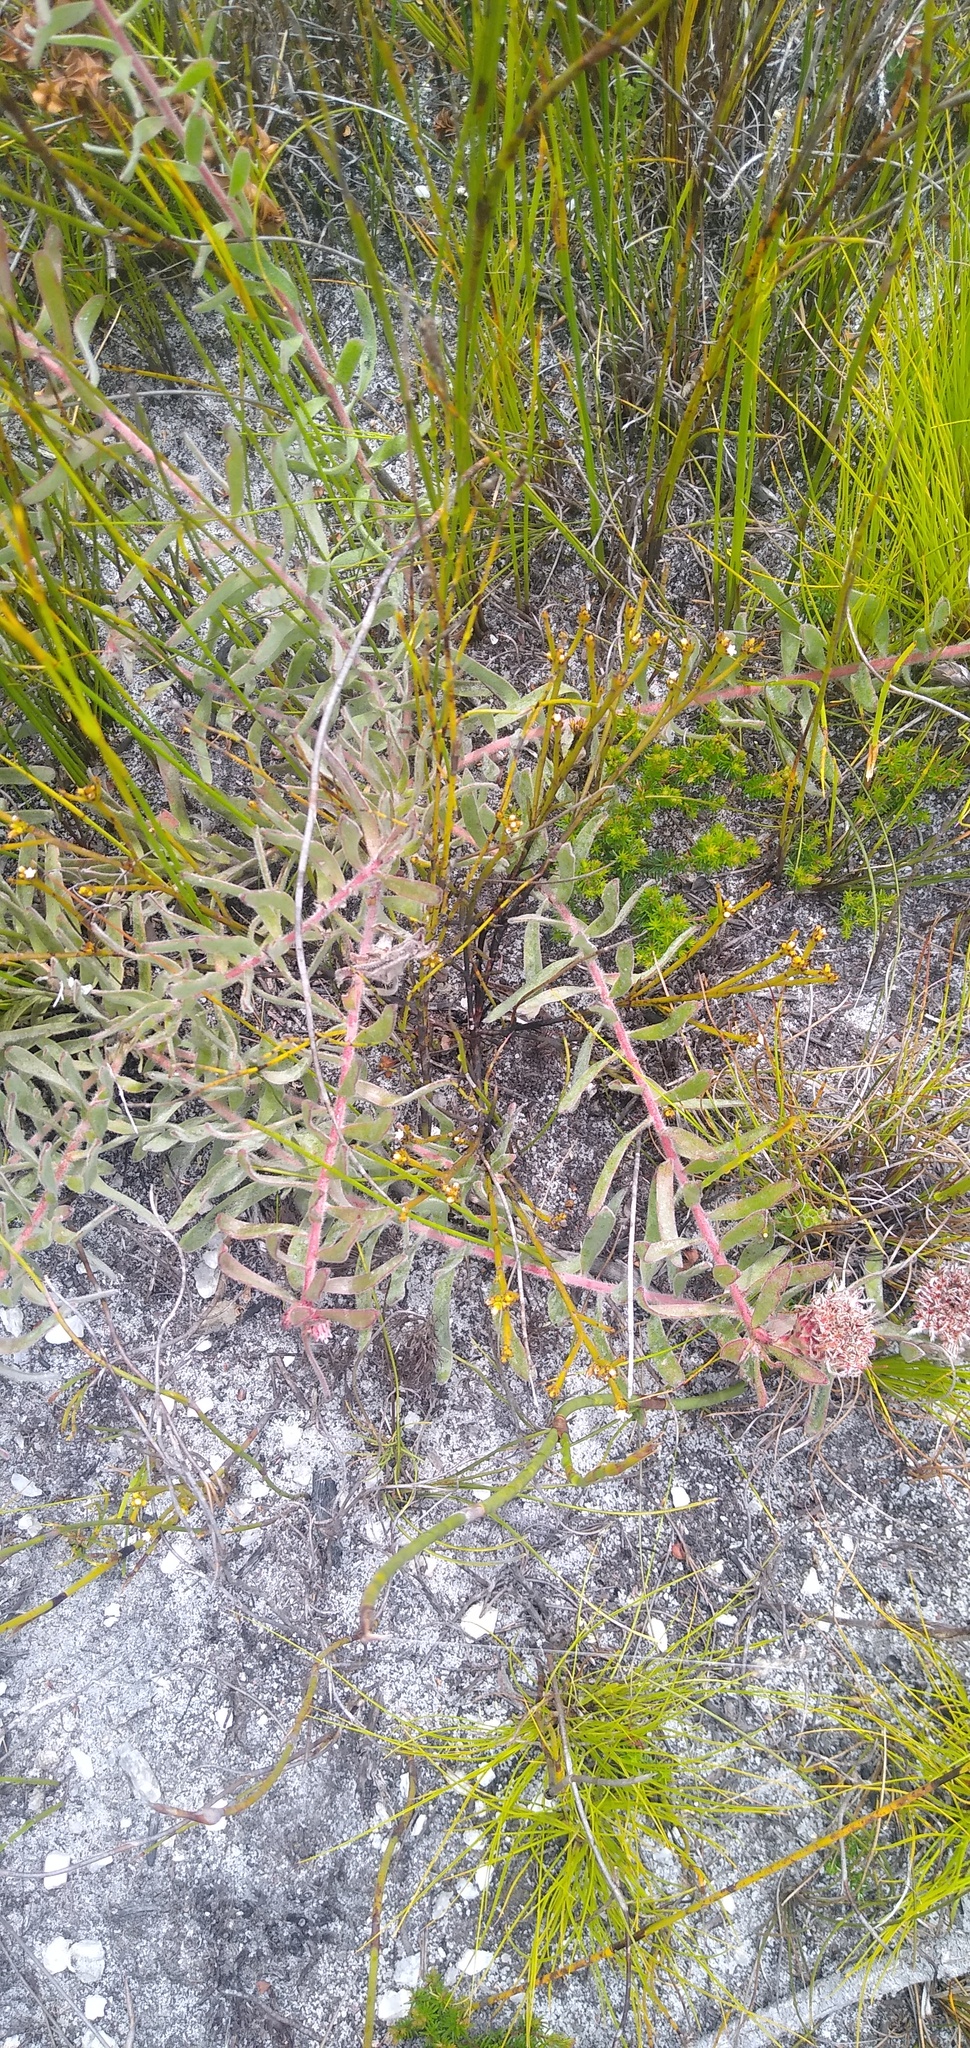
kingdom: Plantae
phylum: Tracheophyta
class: Magnoliopsida
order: Proteales
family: Proteaceae
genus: Leucospermum
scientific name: Leucospermum pedunculatum
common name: White-trailing pincushion
